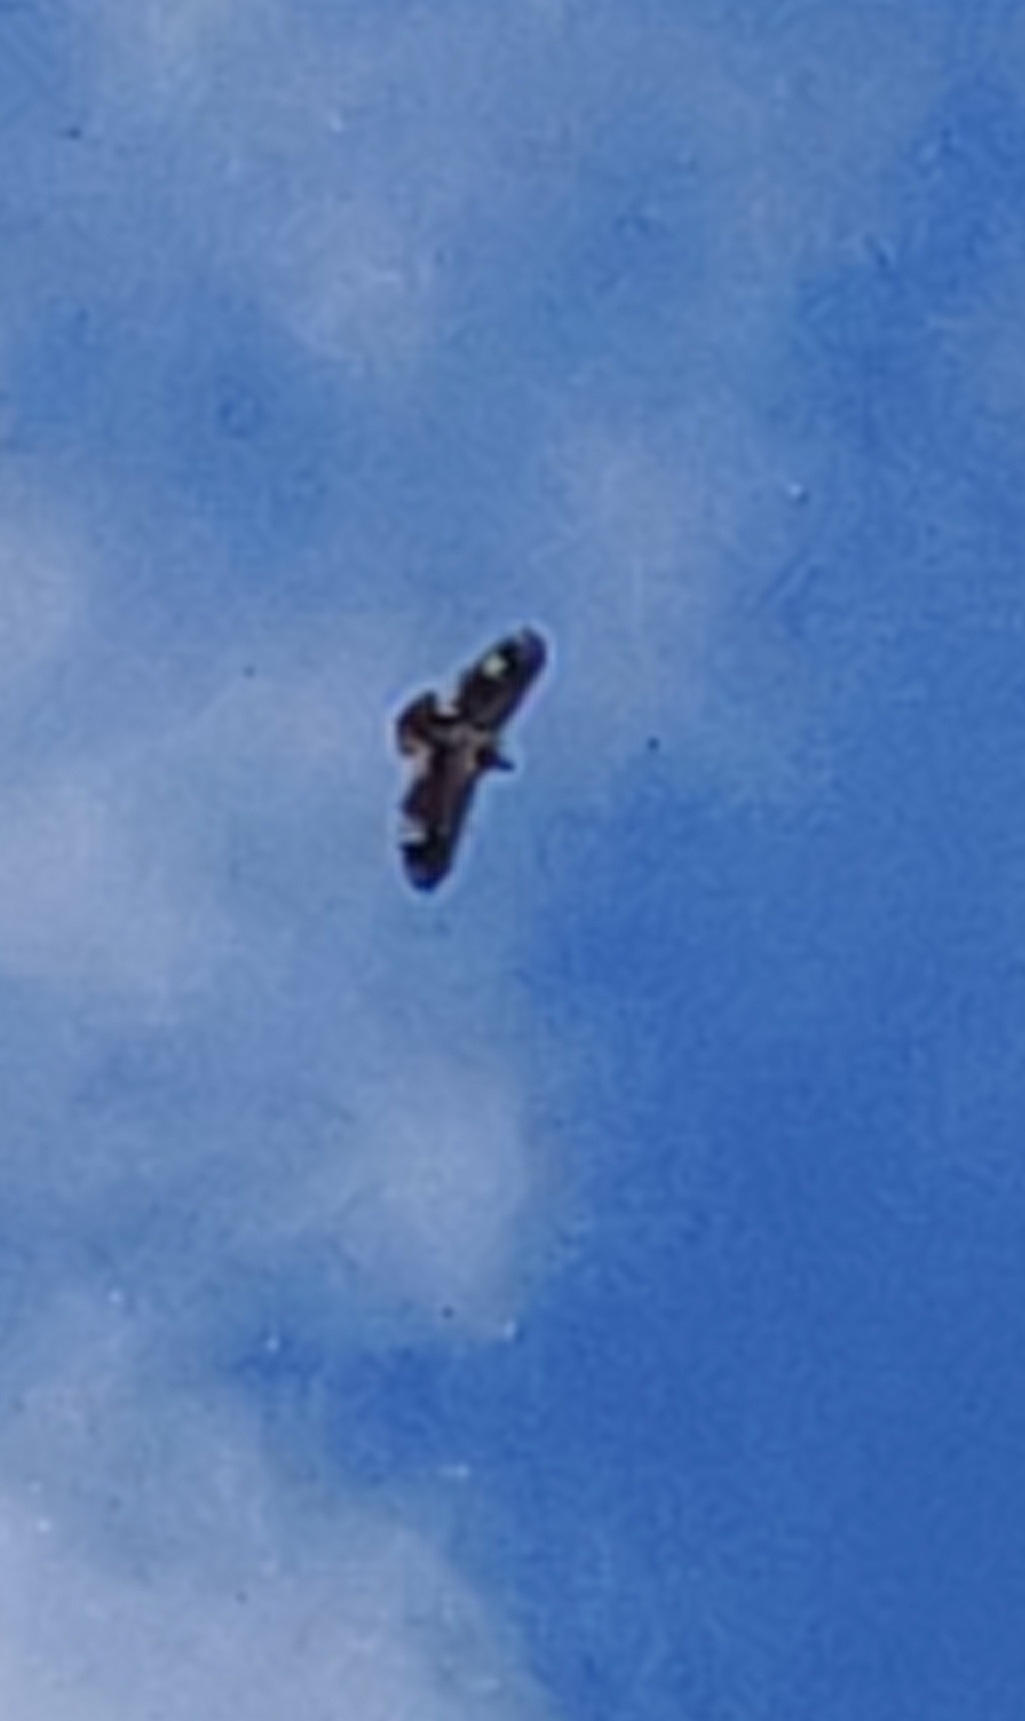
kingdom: Animalia
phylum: Chordata
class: Aves
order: Accipitriformes
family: Accipitridae
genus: Haliaeetus
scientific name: Haliaeetus leucocephalus
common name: Bald eagle
